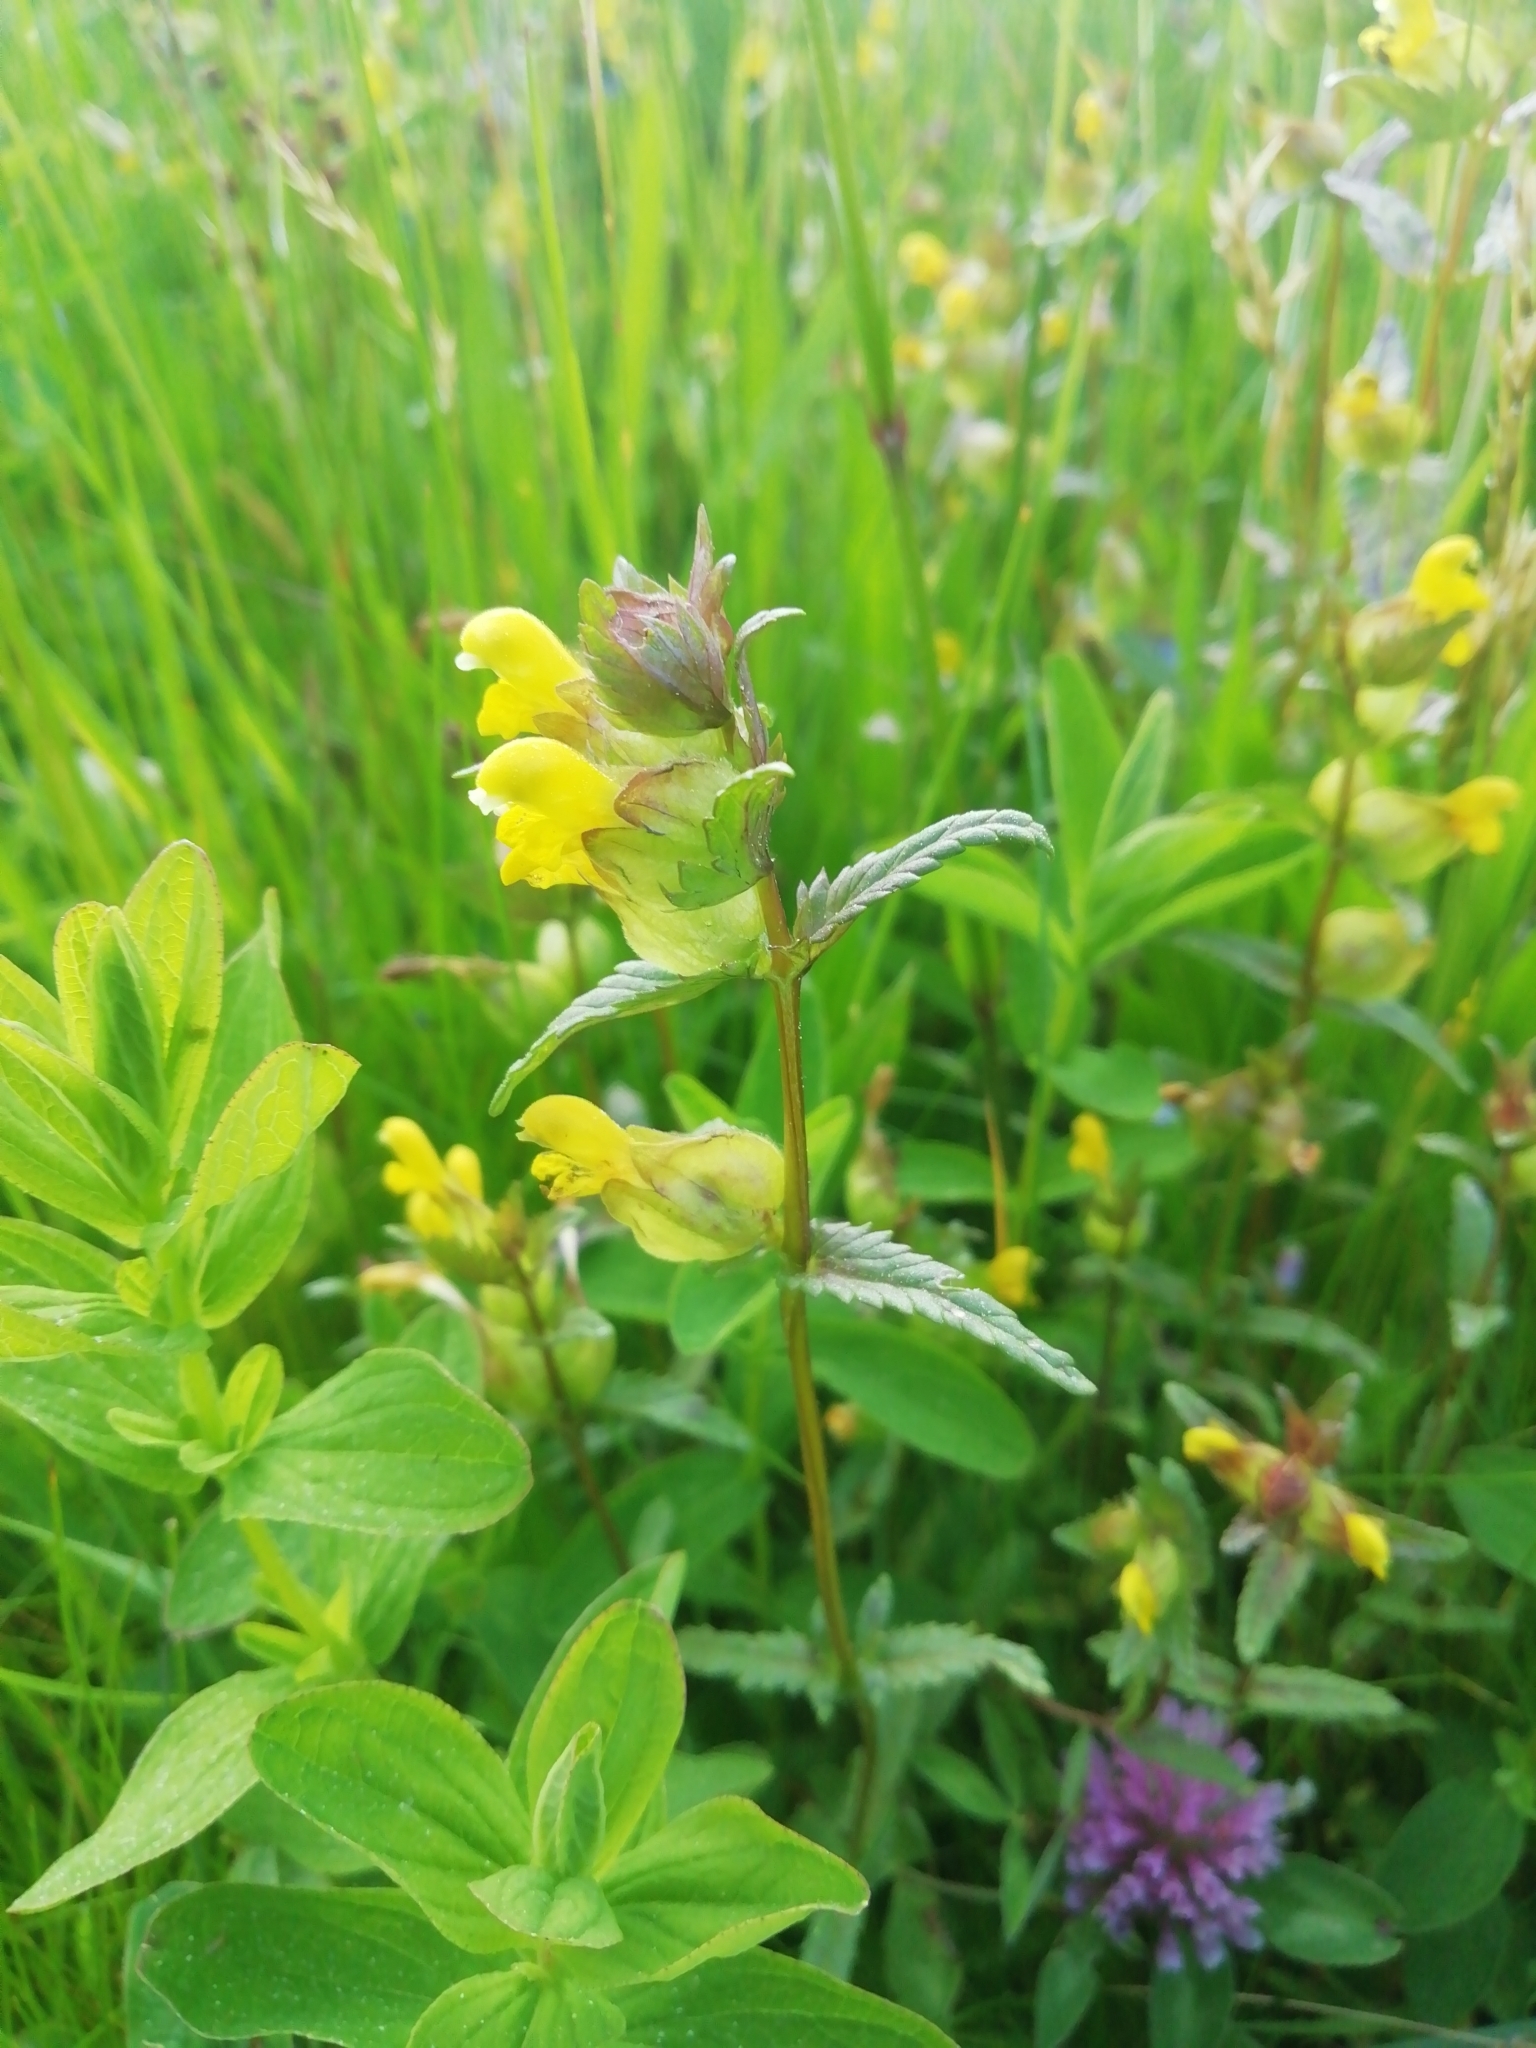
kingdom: Plantae
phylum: Tracheophyta
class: Magnoliopsida
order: Lamiales
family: Orobanchaceae
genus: Rhinanthus
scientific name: Rhinanthus minor
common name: Yellow-rattle
